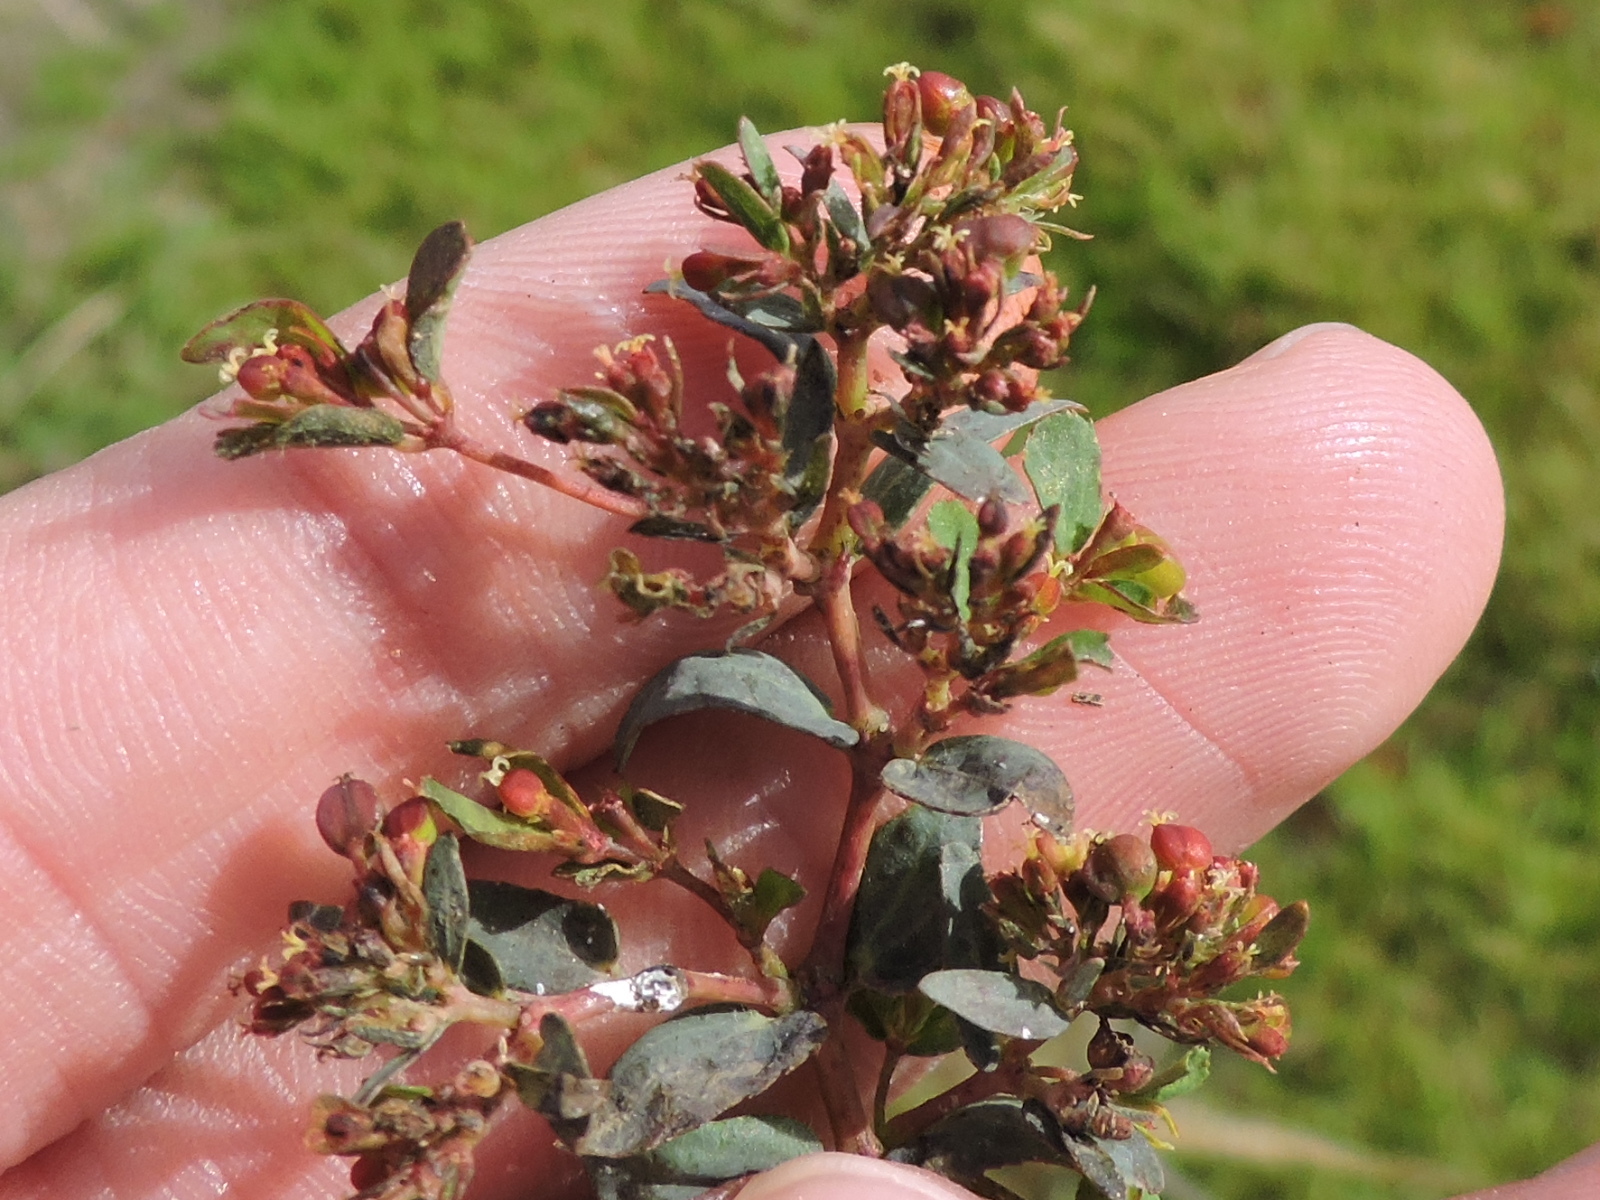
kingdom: Plantae
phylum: Tracheophyta
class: Magnoliopsida
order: Malpighiales
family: Euphorbiaceae
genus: Euphorbia
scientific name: Euphorbia nutans
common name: Eyebane
